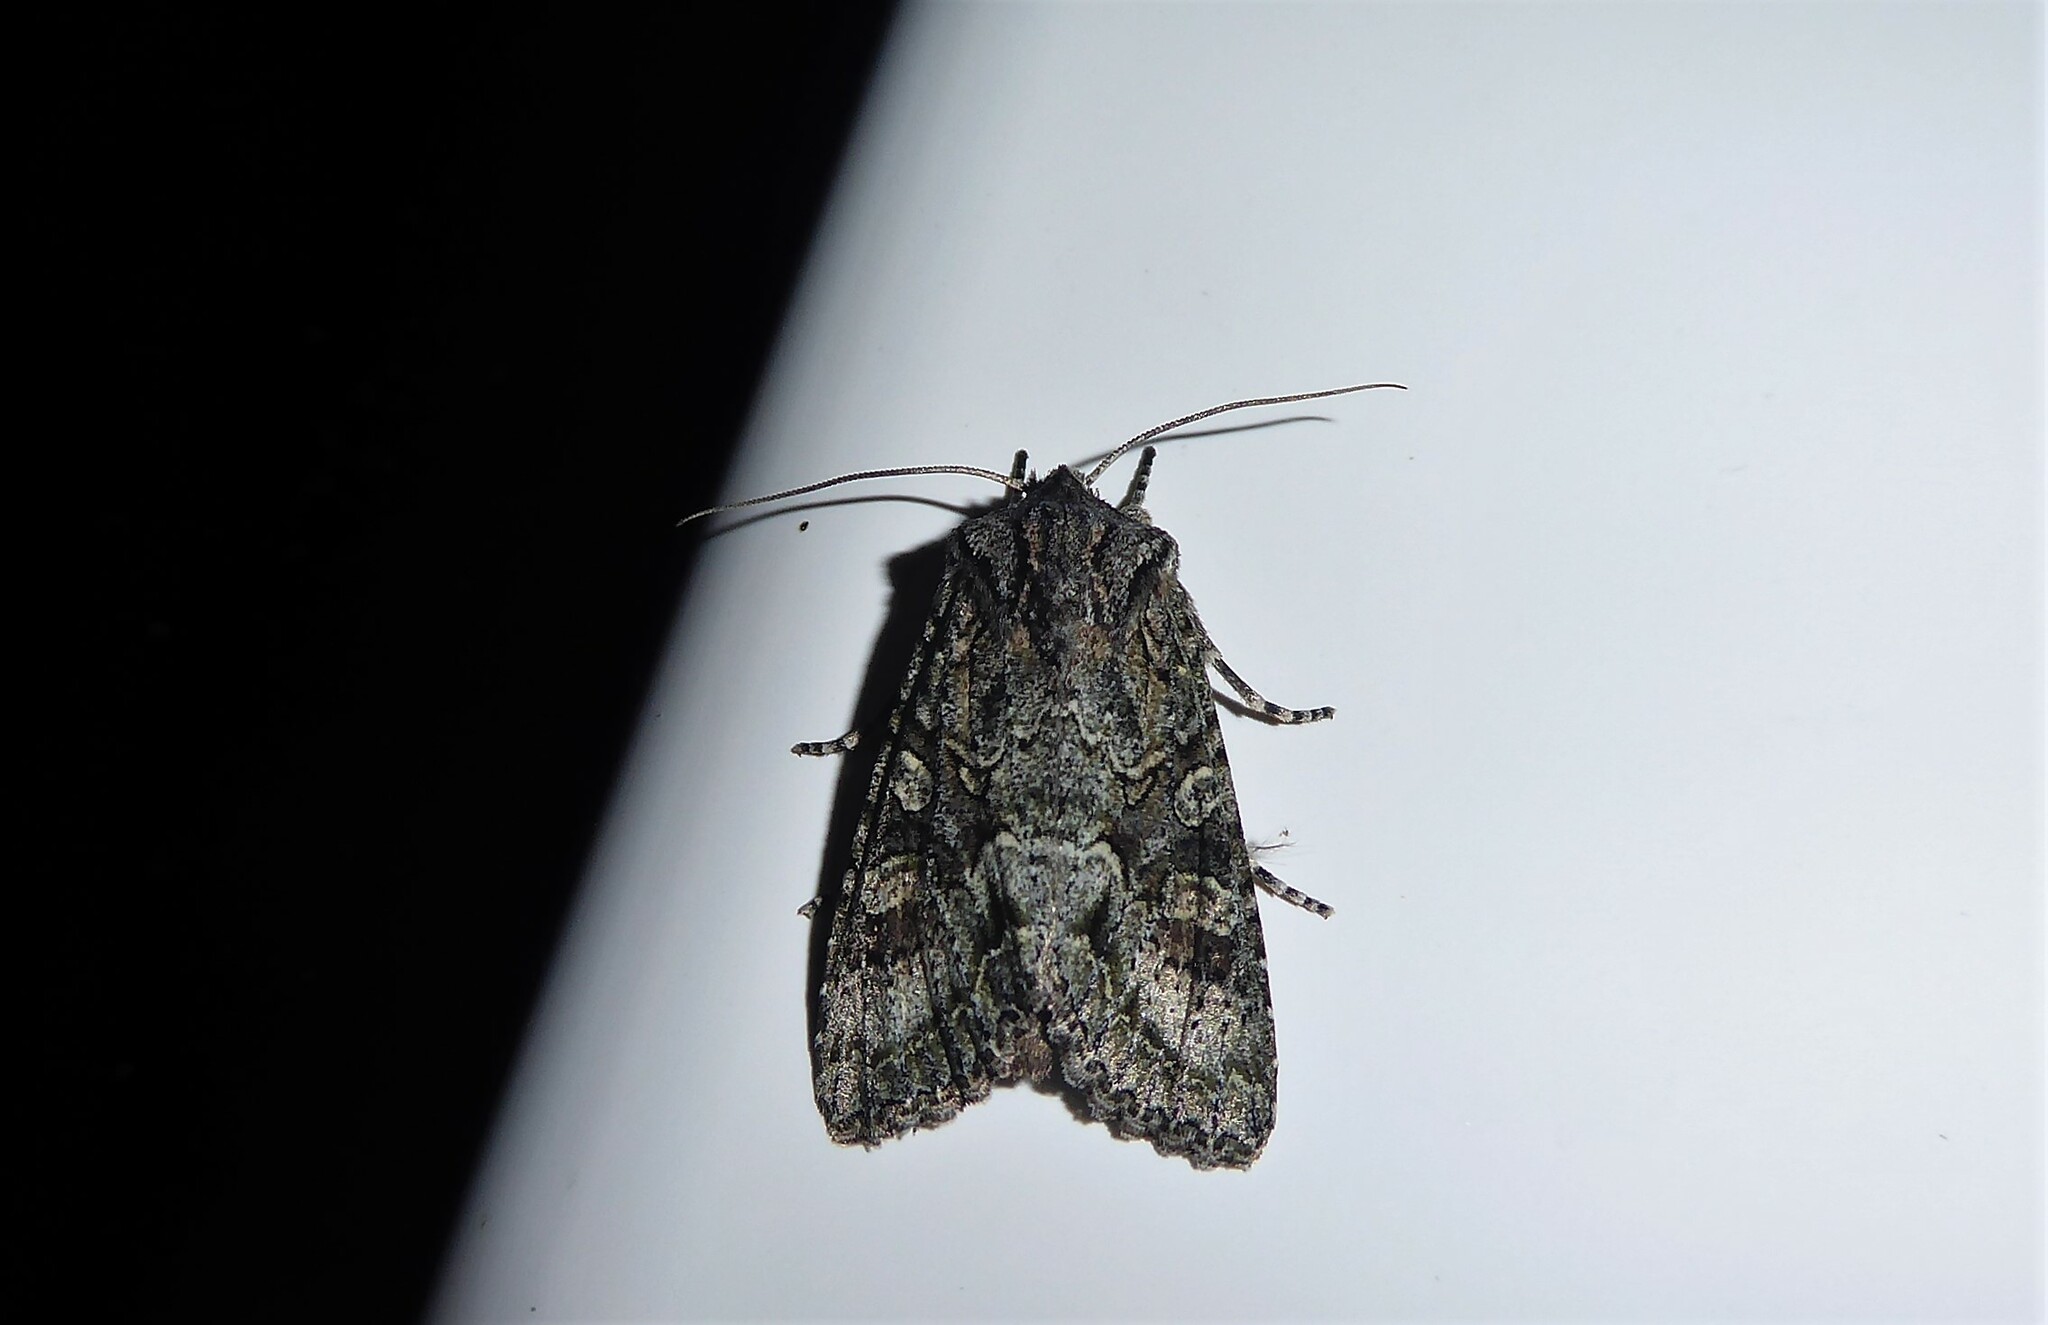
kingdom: Animalia
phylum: Arthropoda
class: Insecta
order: Lepidoptera
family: Noctuidae
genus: Ichneutica
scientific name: Ichneutica mutans
